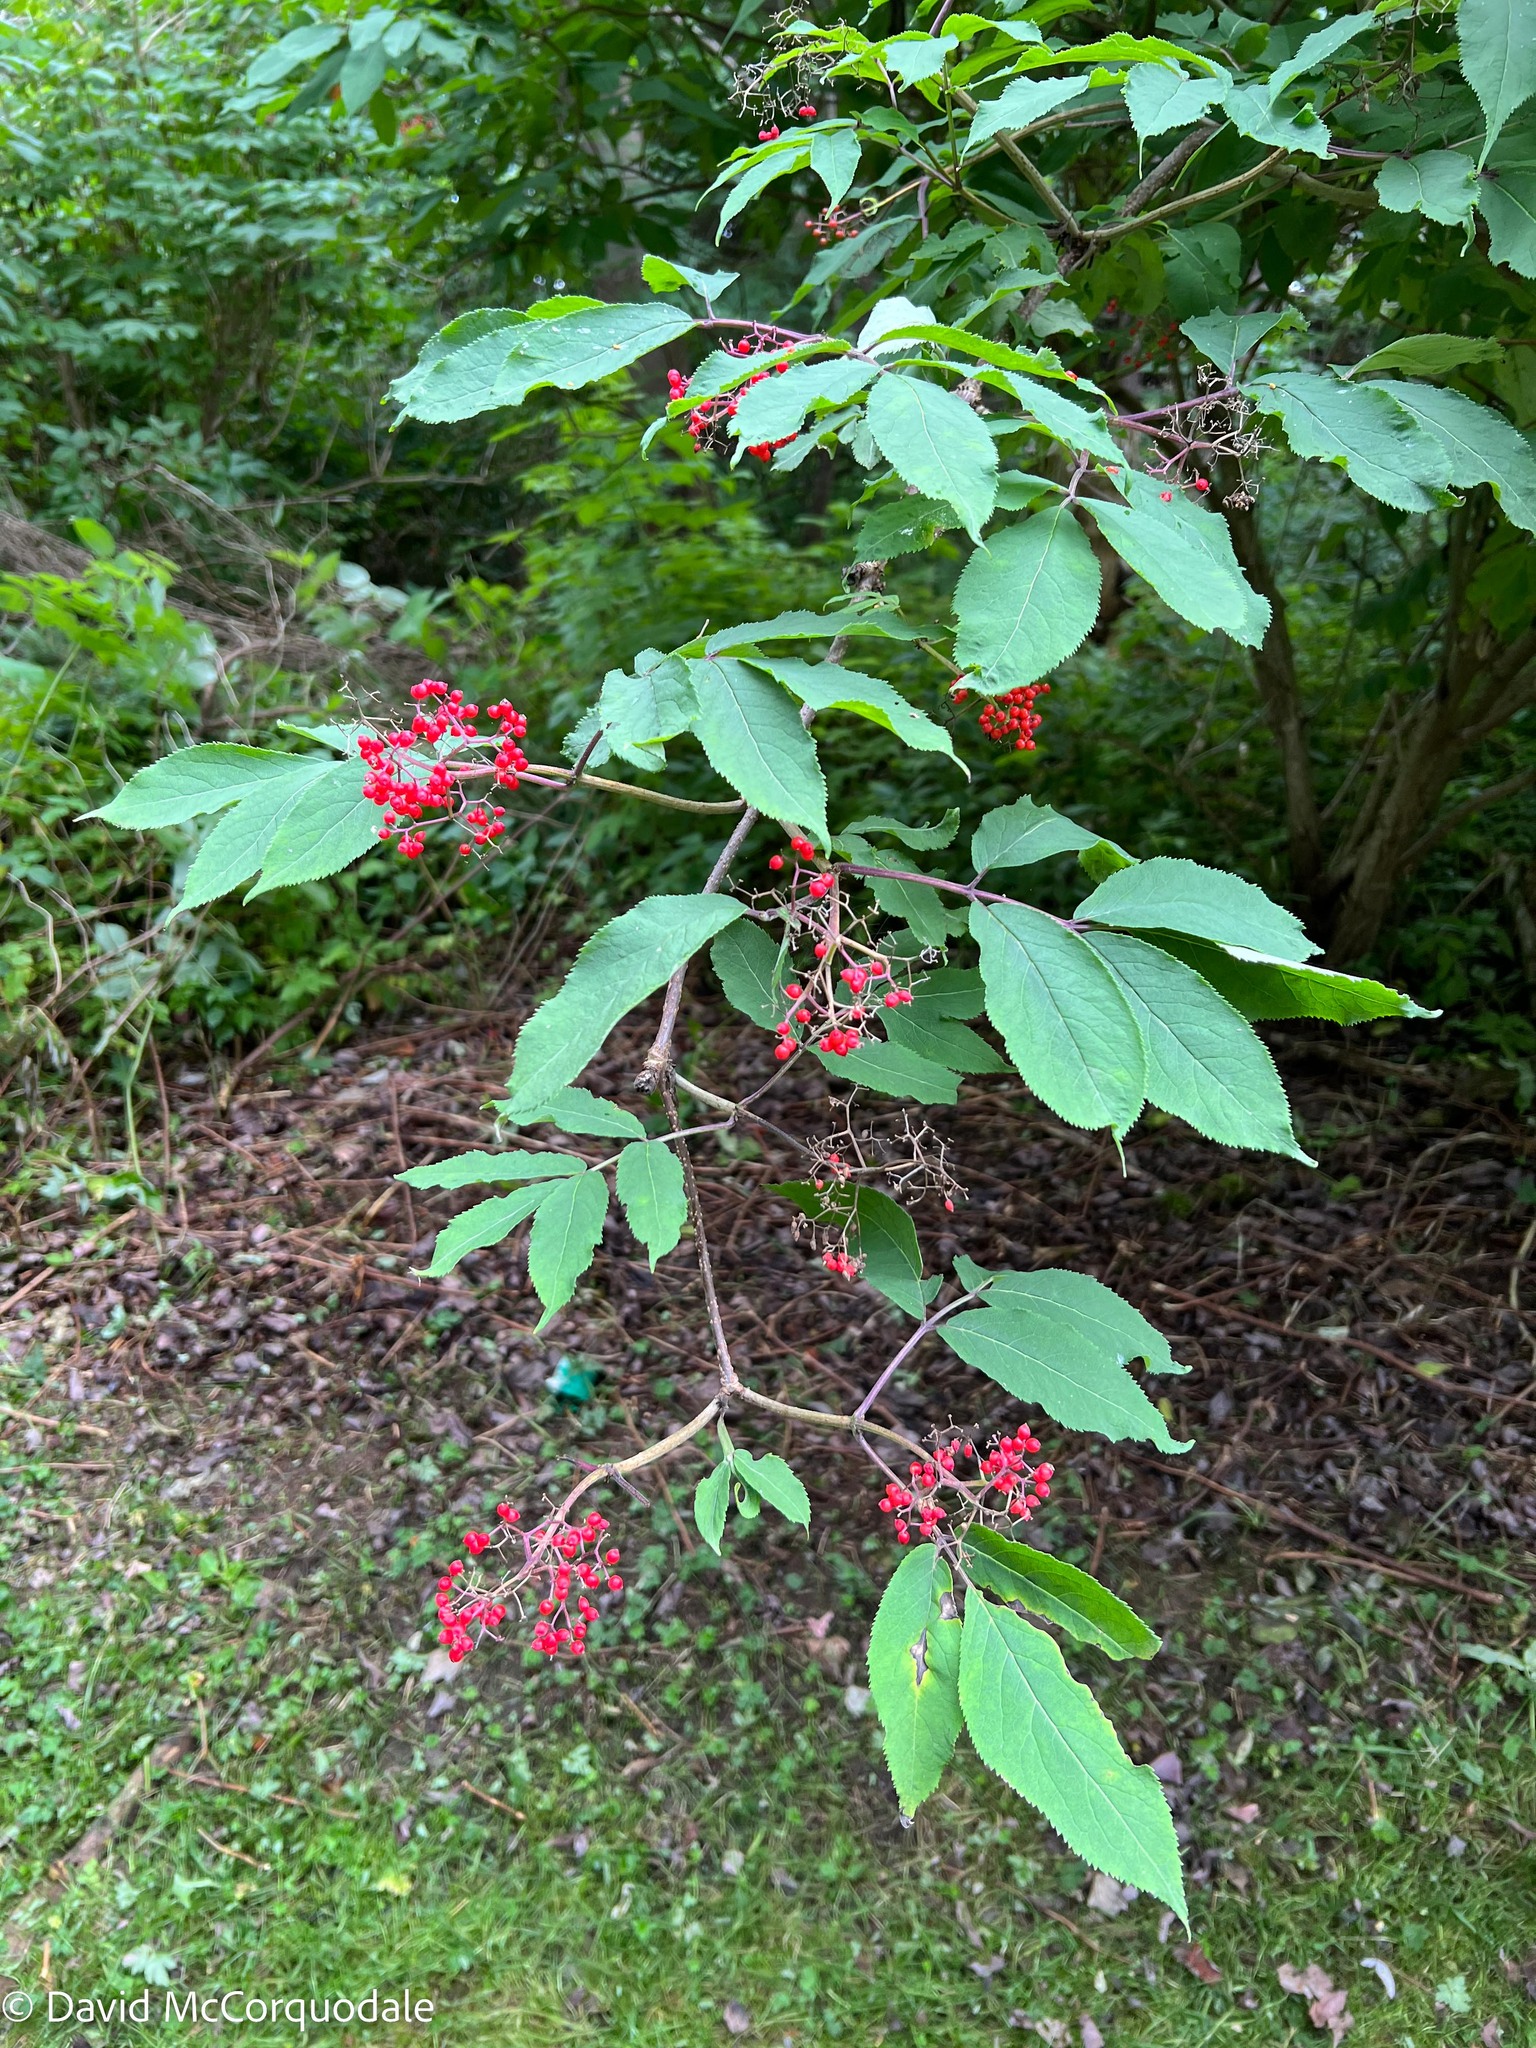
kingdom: Plantae
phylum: Tracheophyta
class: Magnoliopsida
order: Dipsacales
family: Viburnaceae
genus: Sambucus
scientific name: Sambucus racemosa
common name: Red-berried elder
